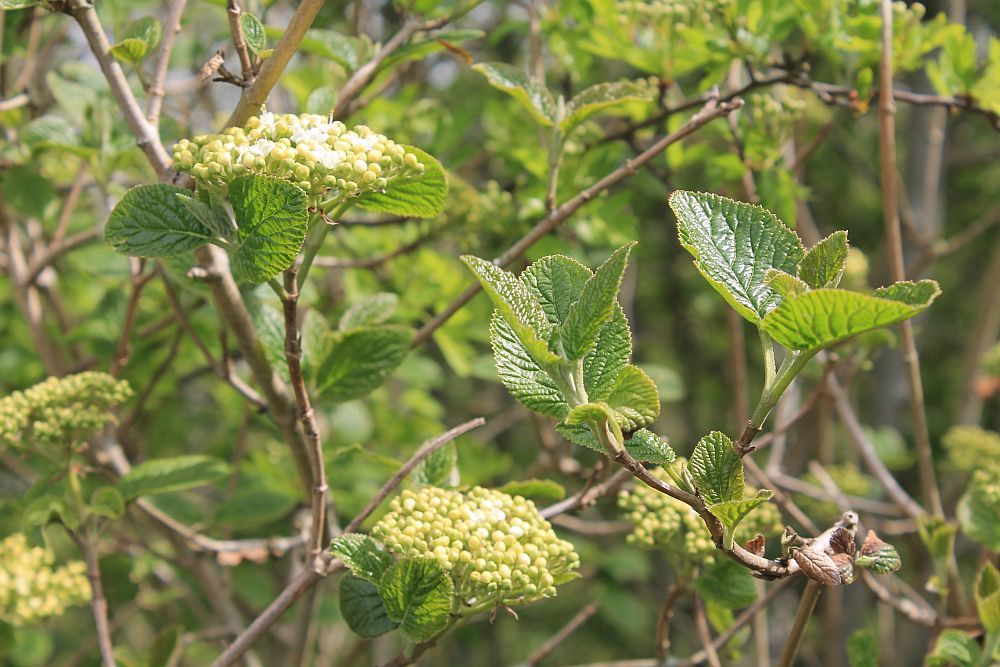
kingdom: Plantae
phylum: Tracheophyta
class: Magnoliopsida
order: Dipsacales
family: Viburnaceae
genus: Viburnum
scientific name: Viburnum lantana
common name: Wayfaring tree
